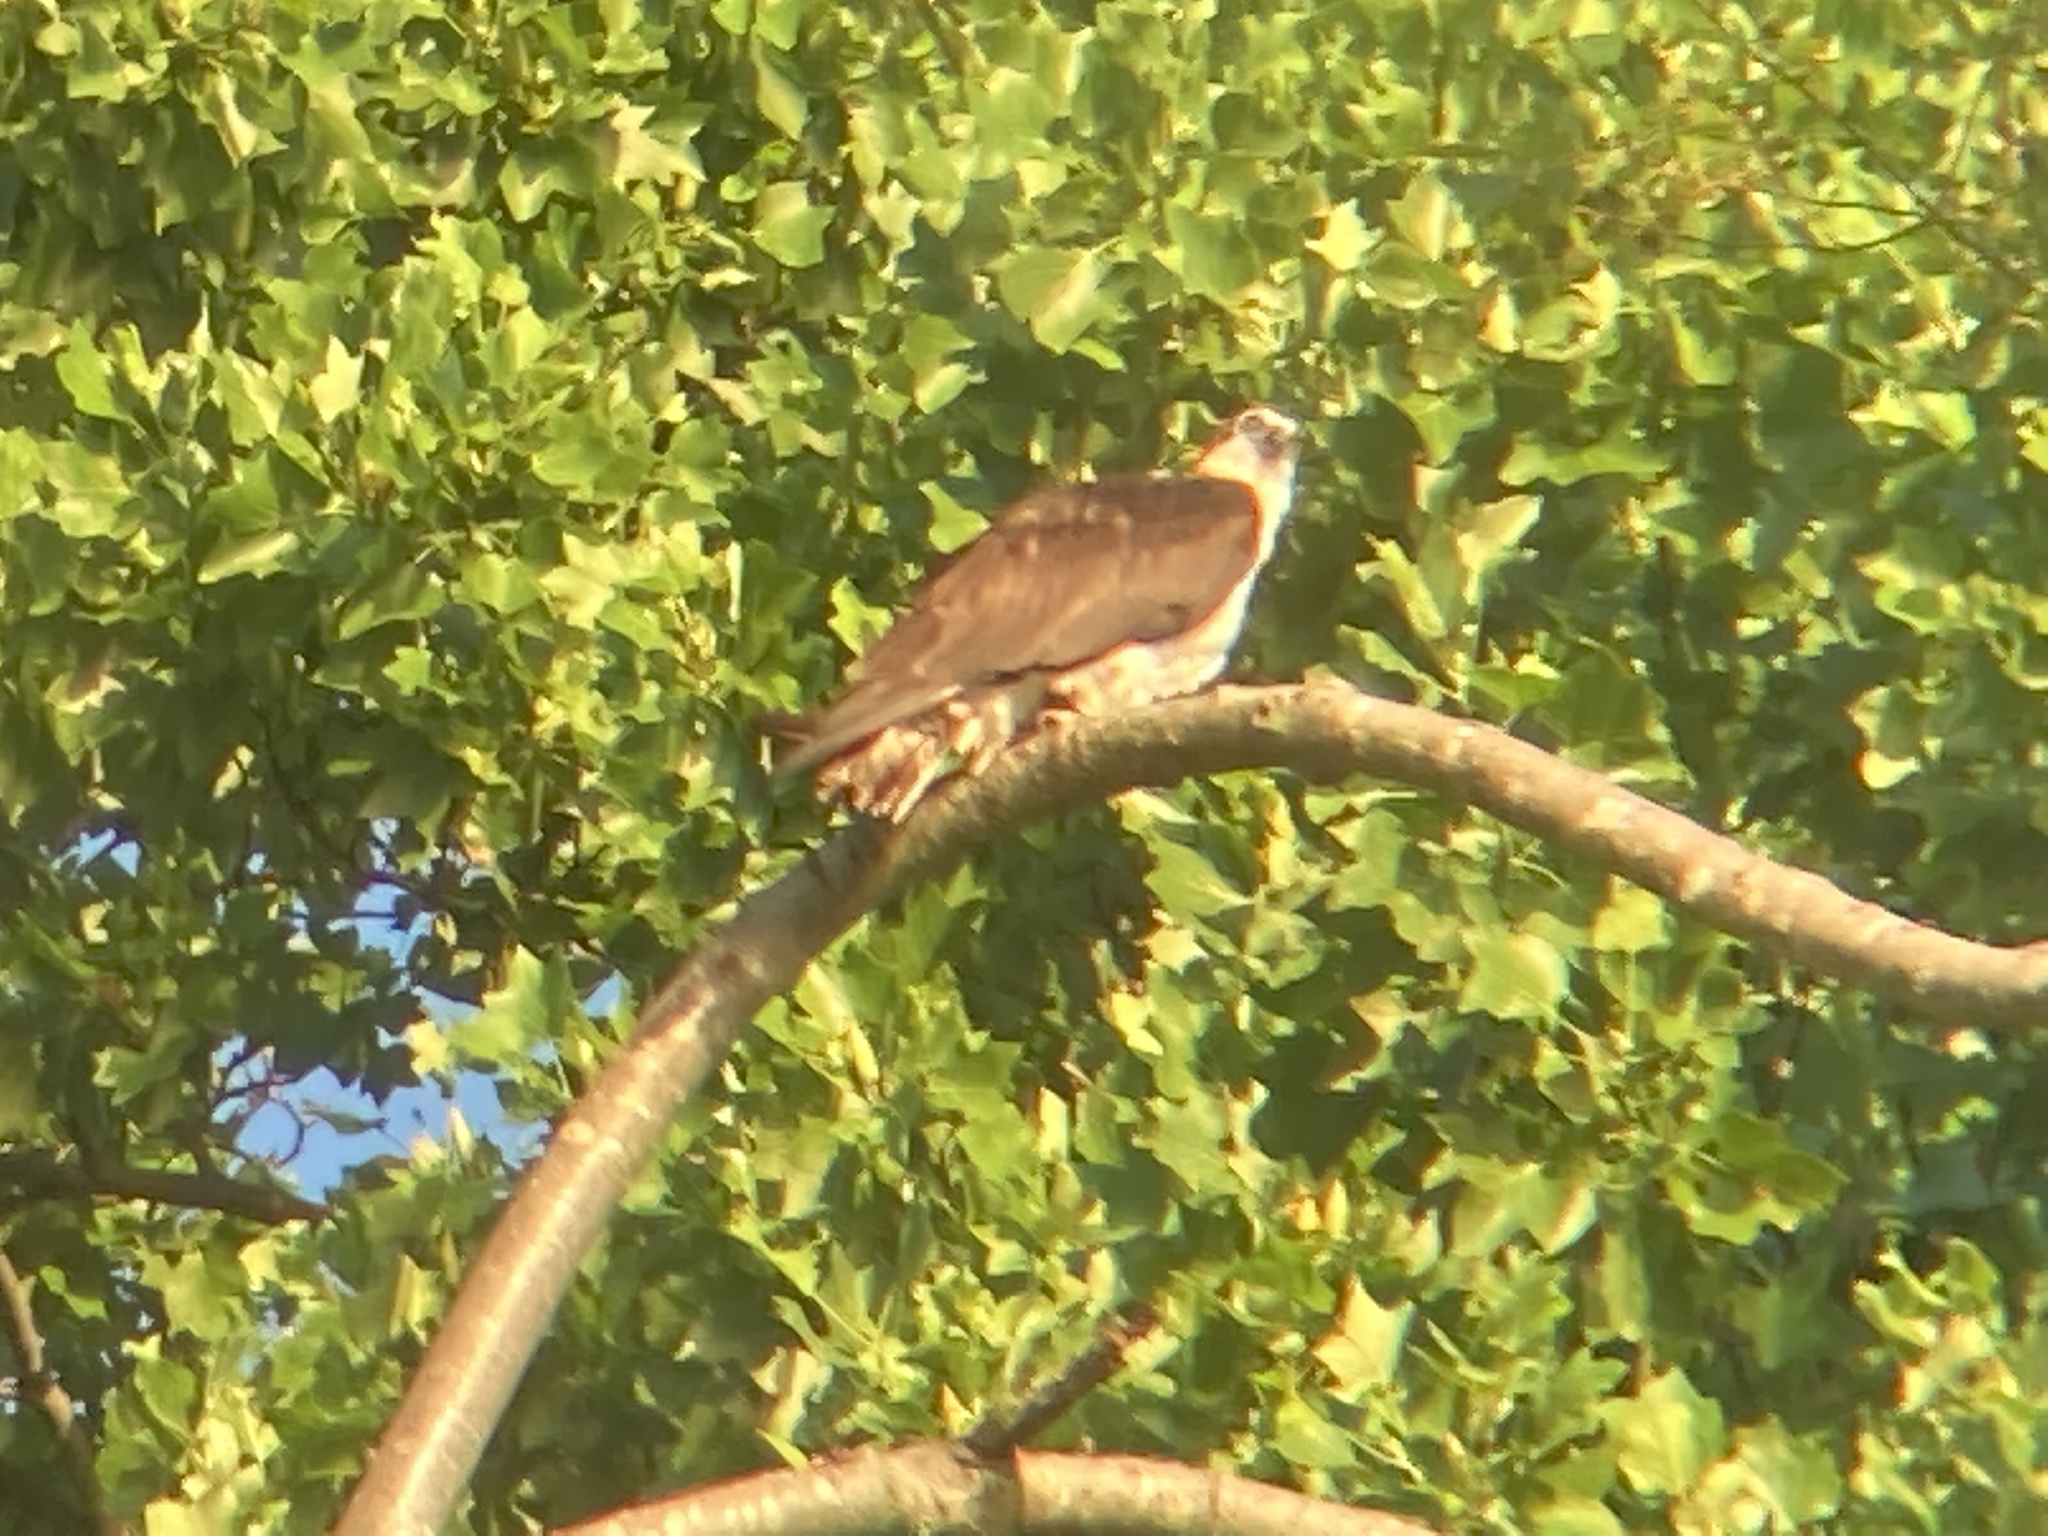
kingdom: Animalia
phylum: Chordata
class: Aves
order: Accipitriformes
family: Pandionidae
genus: Pandion
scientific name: Pandion haliaetus
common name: Osprey
